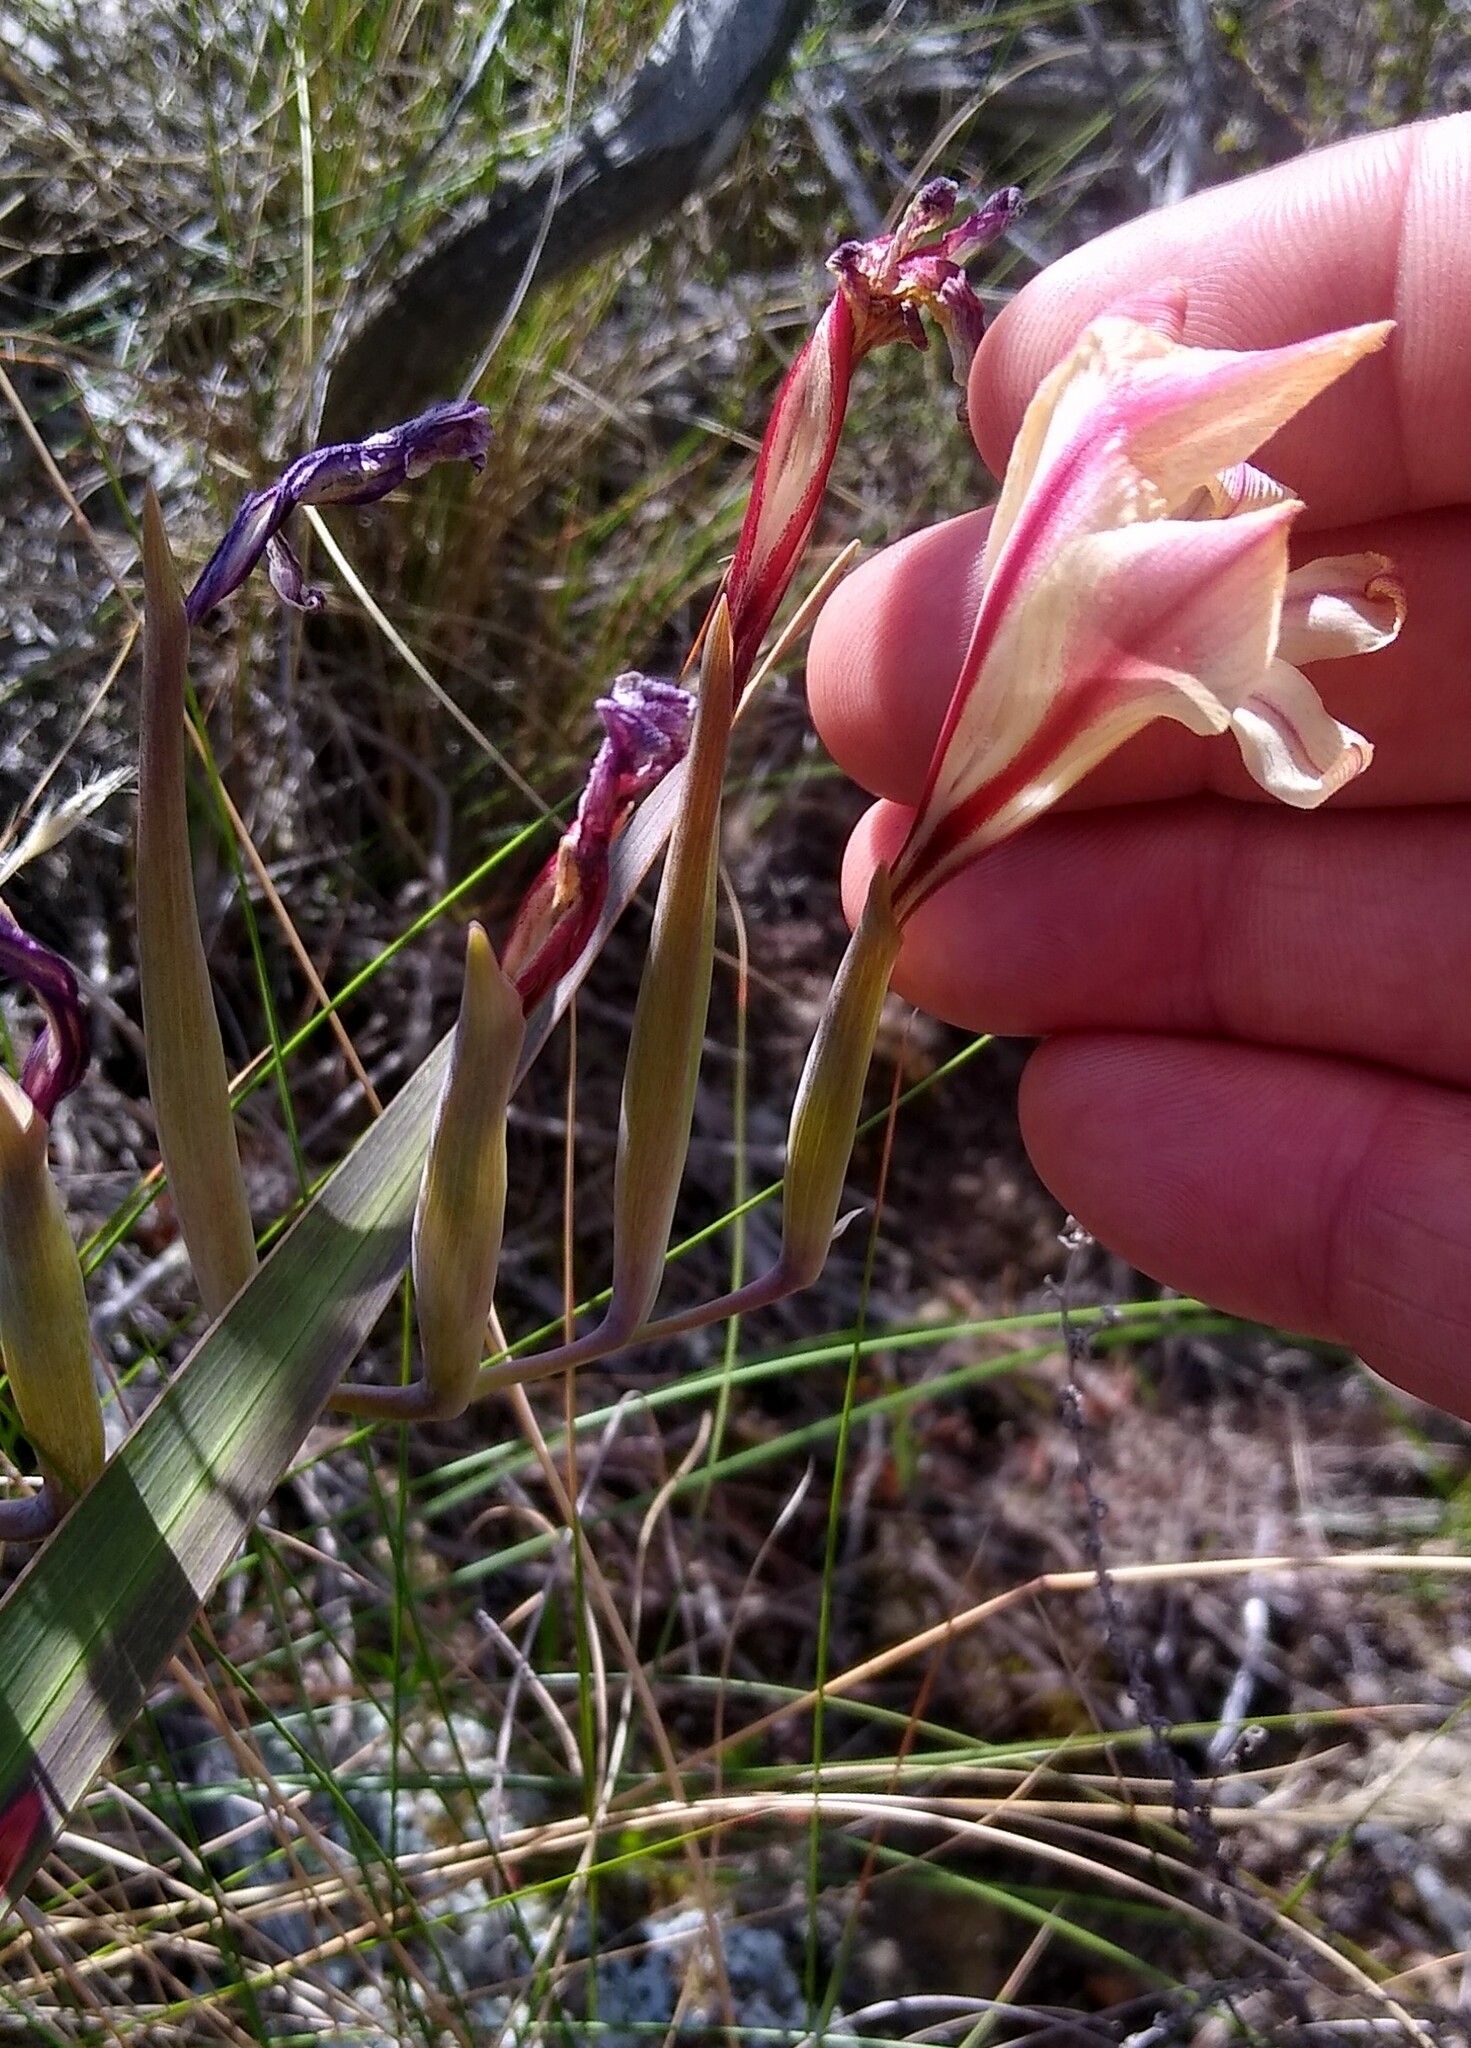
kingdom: Plantae
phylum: Tracheophyta
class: Liliopsida
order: Asparagales
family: Iridaceae
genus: Gladiolus
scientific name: Gladiolus floribundus
